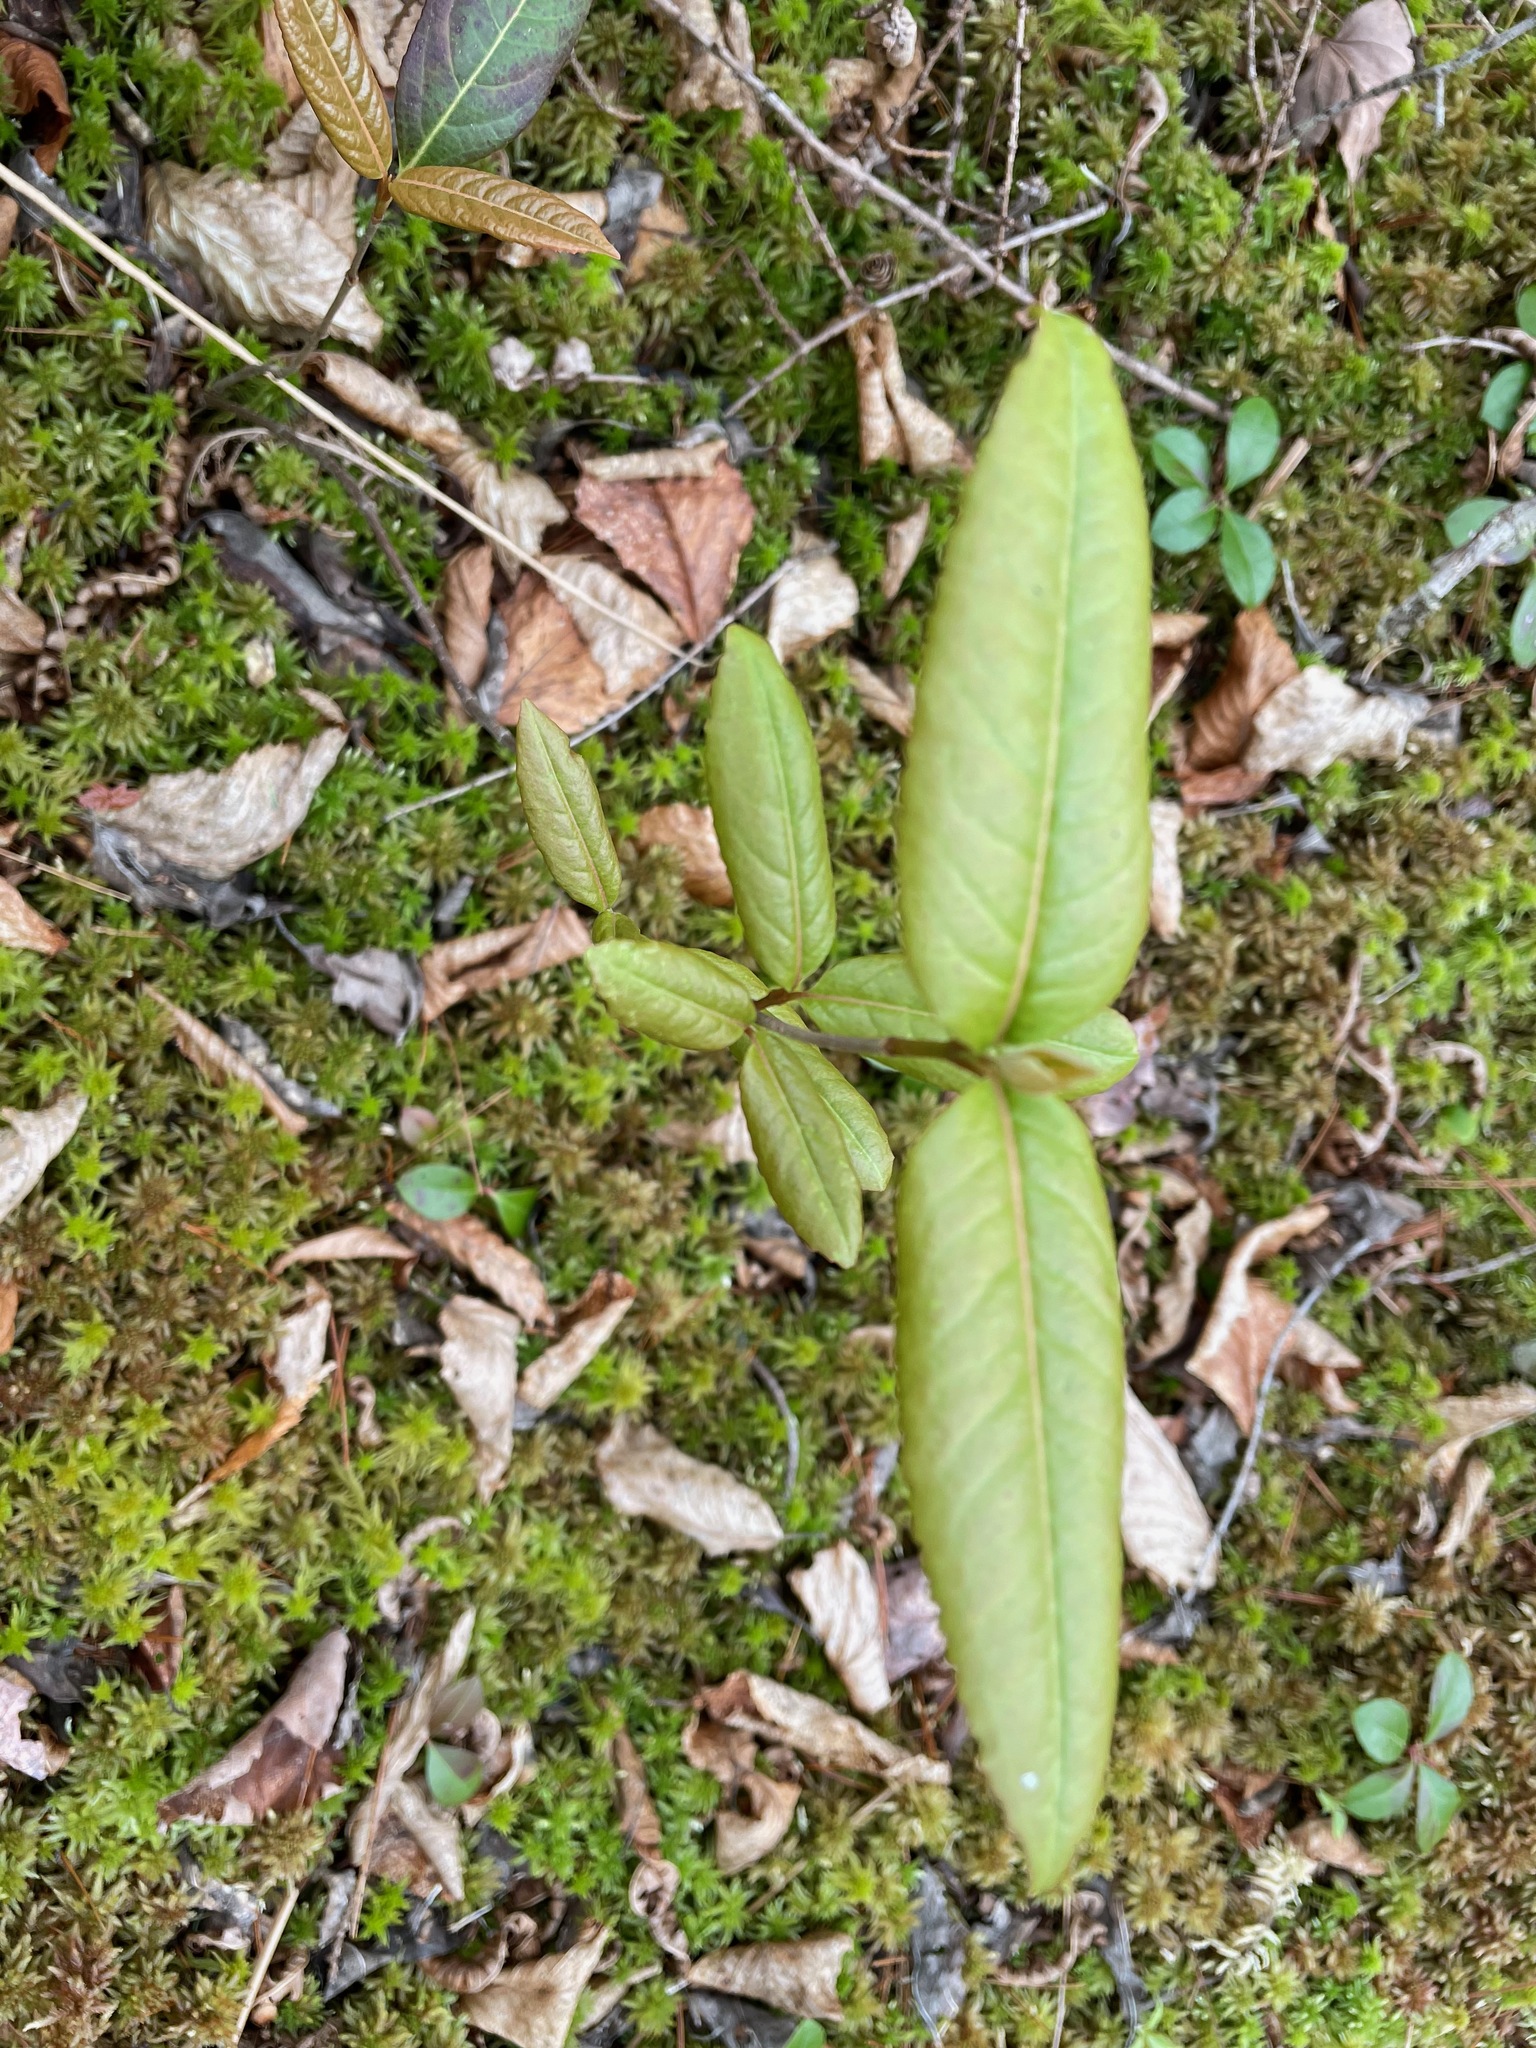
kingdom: Plantae
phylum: Tracheophyta
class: Magnoliopsida
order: Dipsacales
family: Viburnaceae
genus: Viburnum
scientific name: Viburnum cassinoides
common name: Swamp haw
